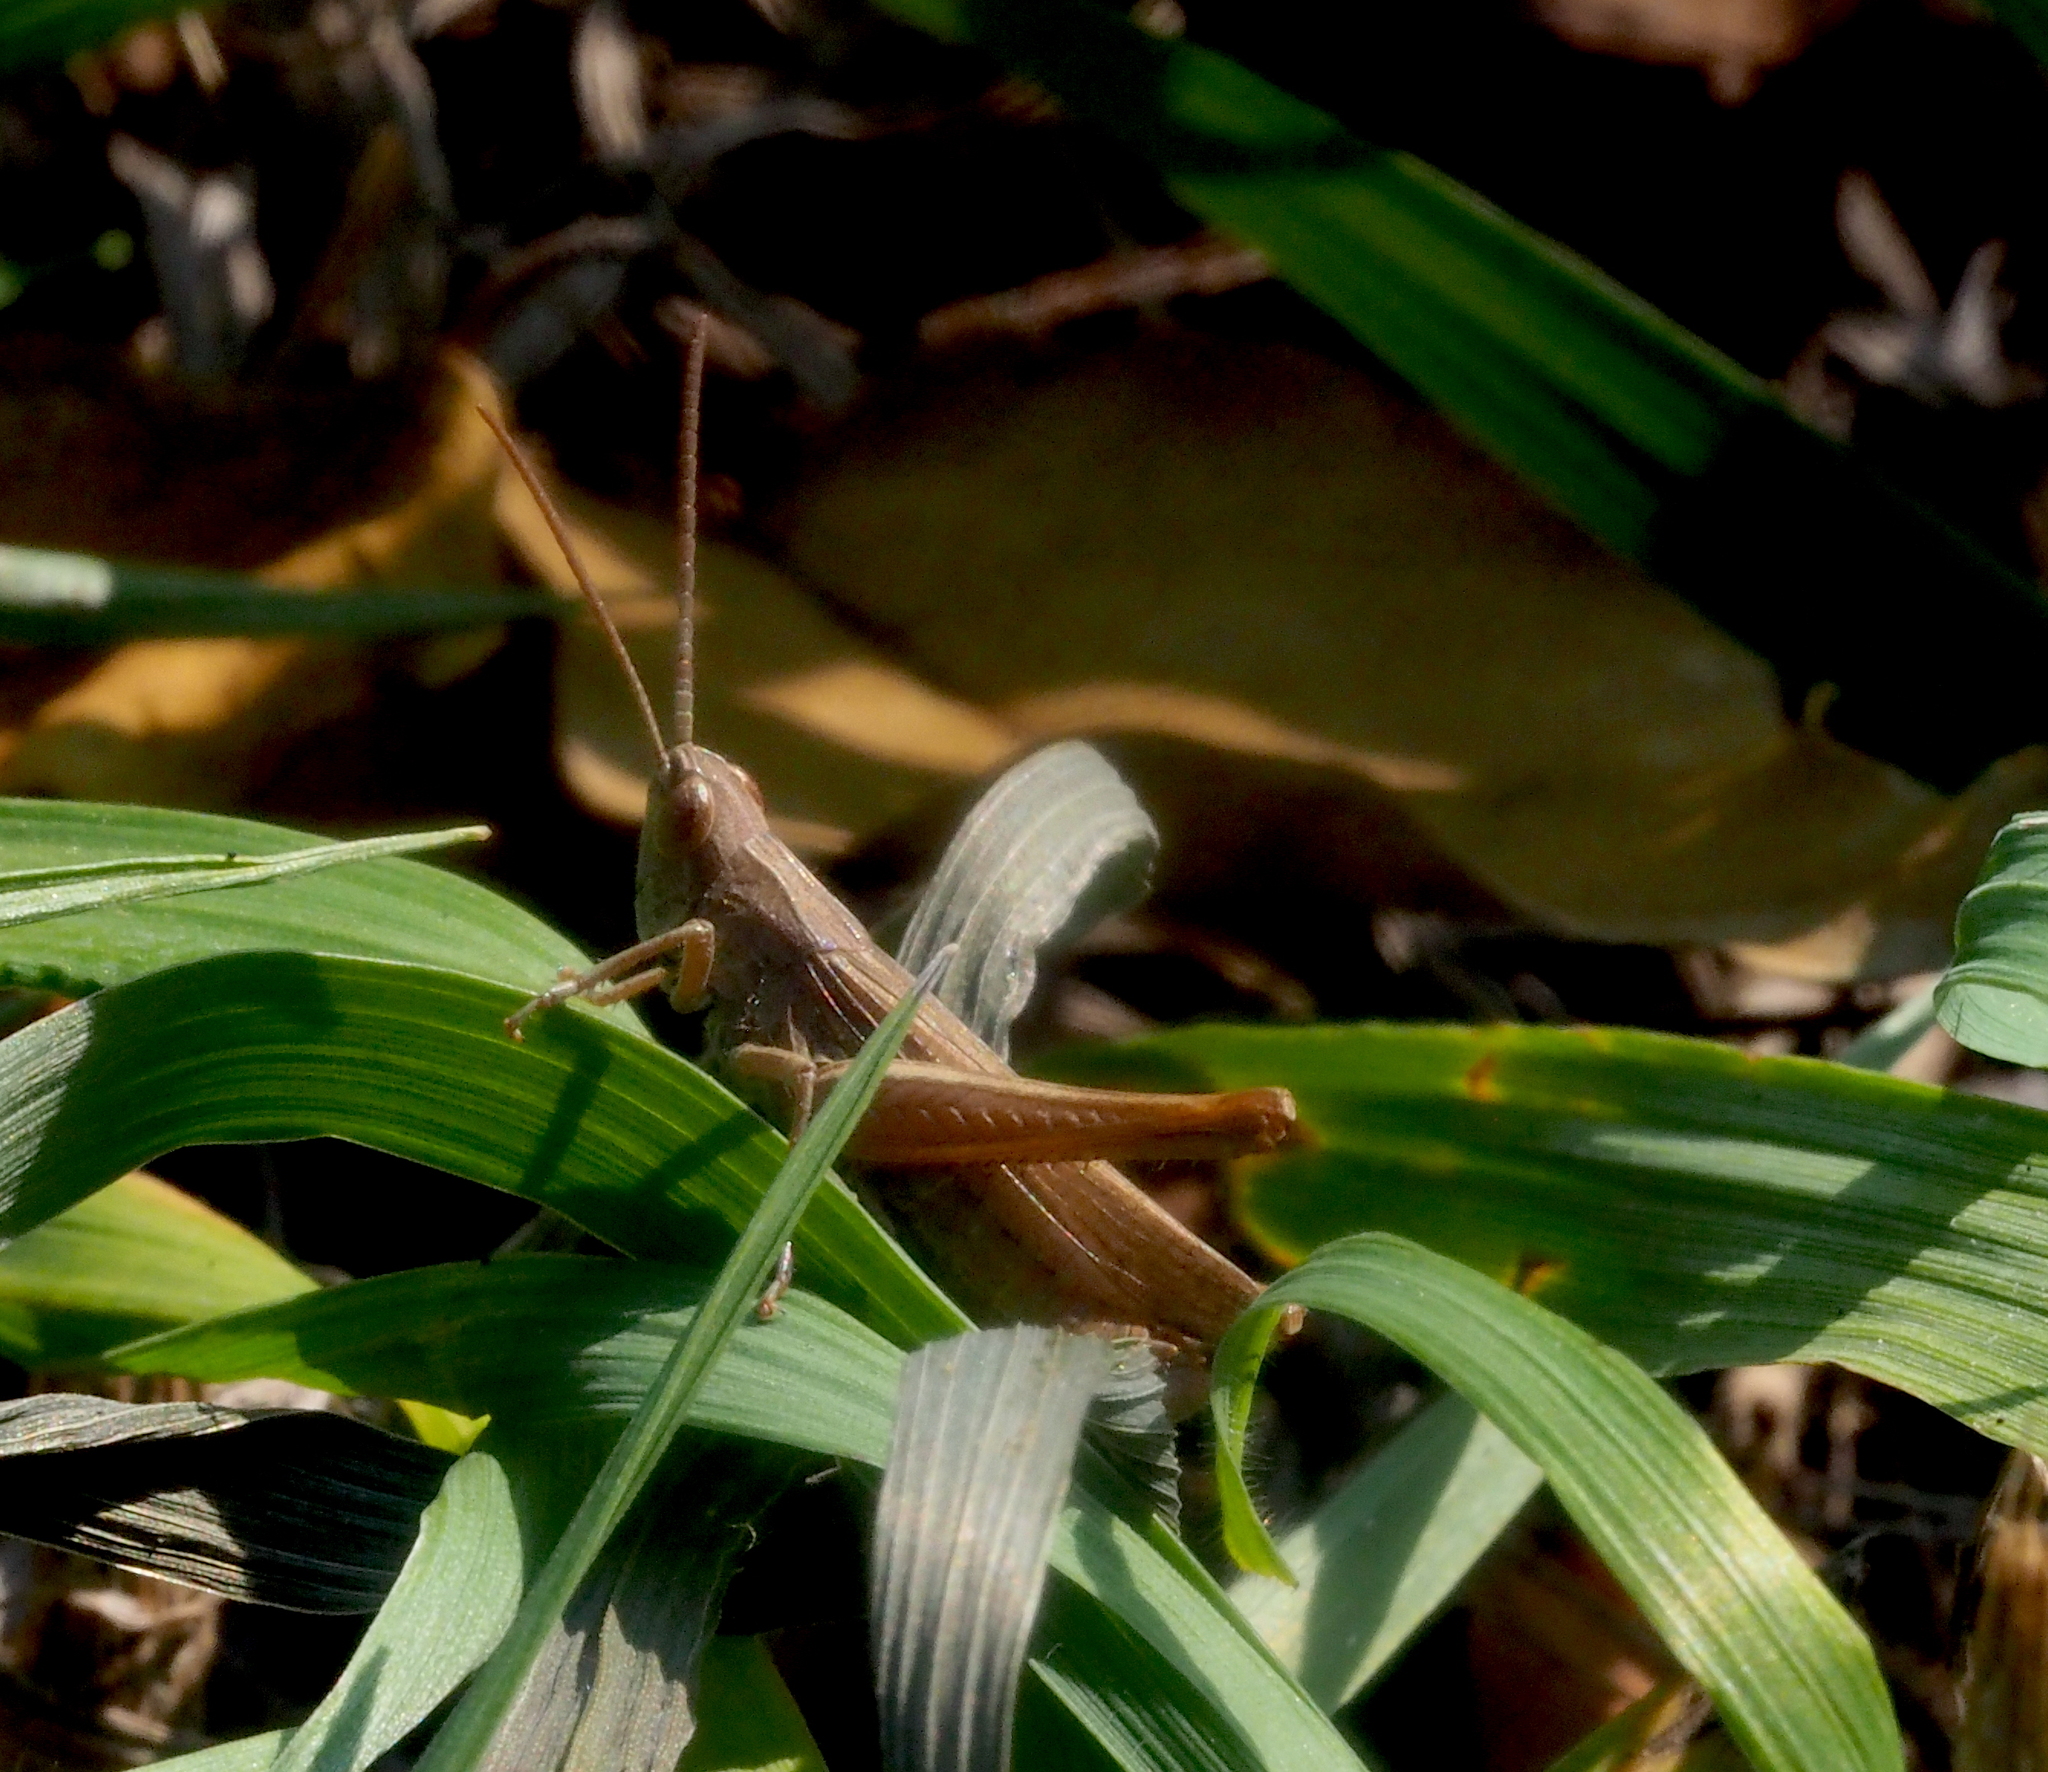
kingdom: Animalia
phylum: Arthropoda
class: Insecta
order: Orthoptera
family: Acrididae
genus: Chorthippus
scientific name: Chorthippus dorsatus
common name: Steppe grasshopper
